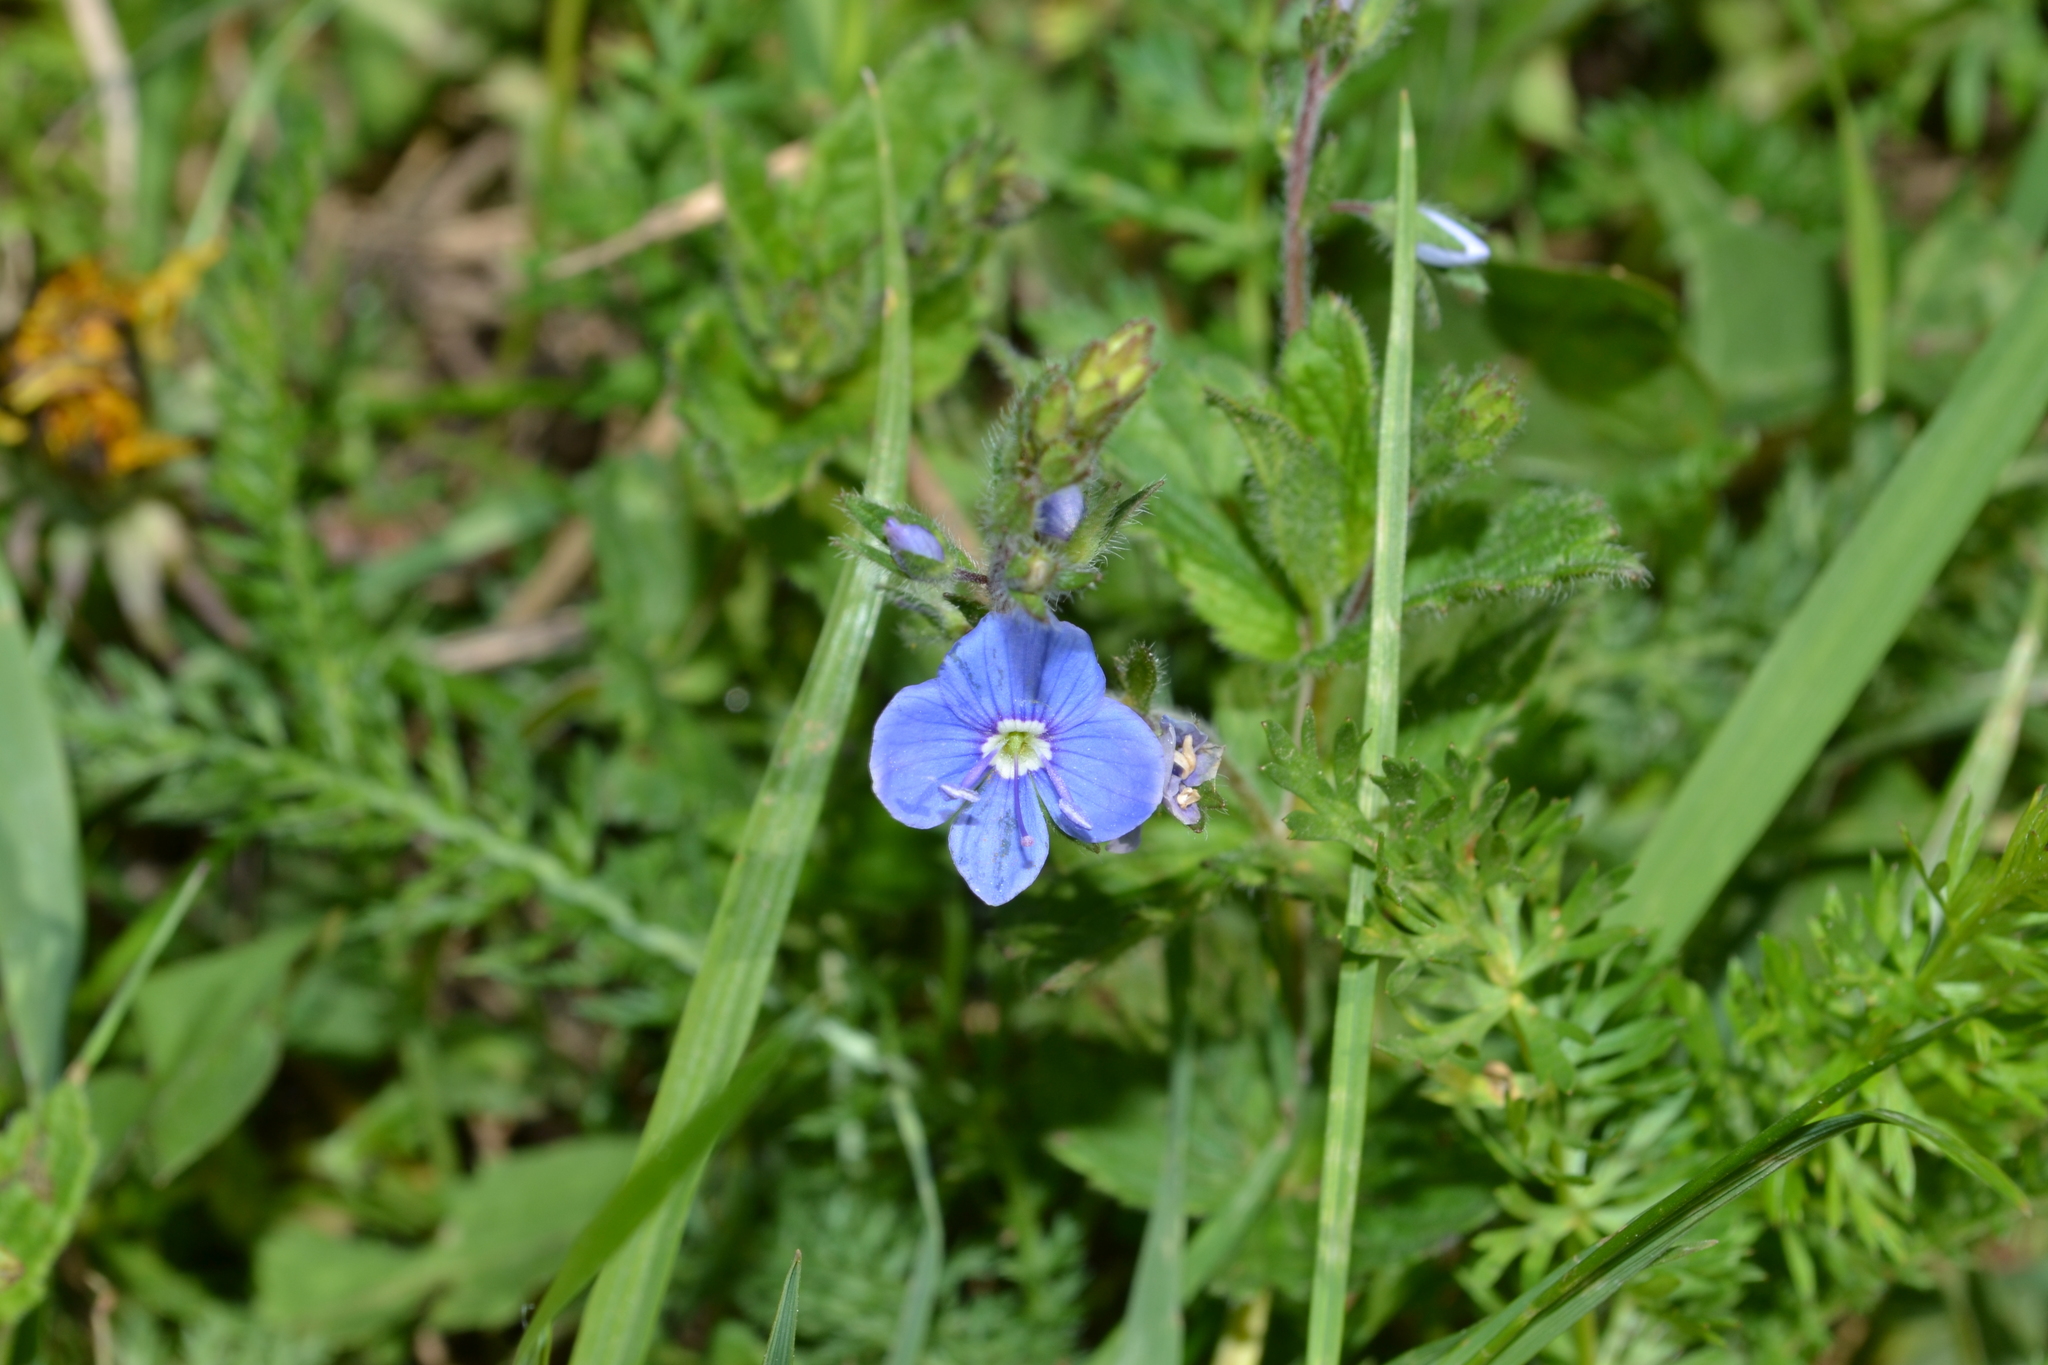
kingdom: Plantae
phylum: Tracheophyta
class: Magnoliopsida
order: Lamiales
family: Plantaginaceae
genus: Veronica
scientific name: Veronica chamaedrys
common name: Germander speedwell
